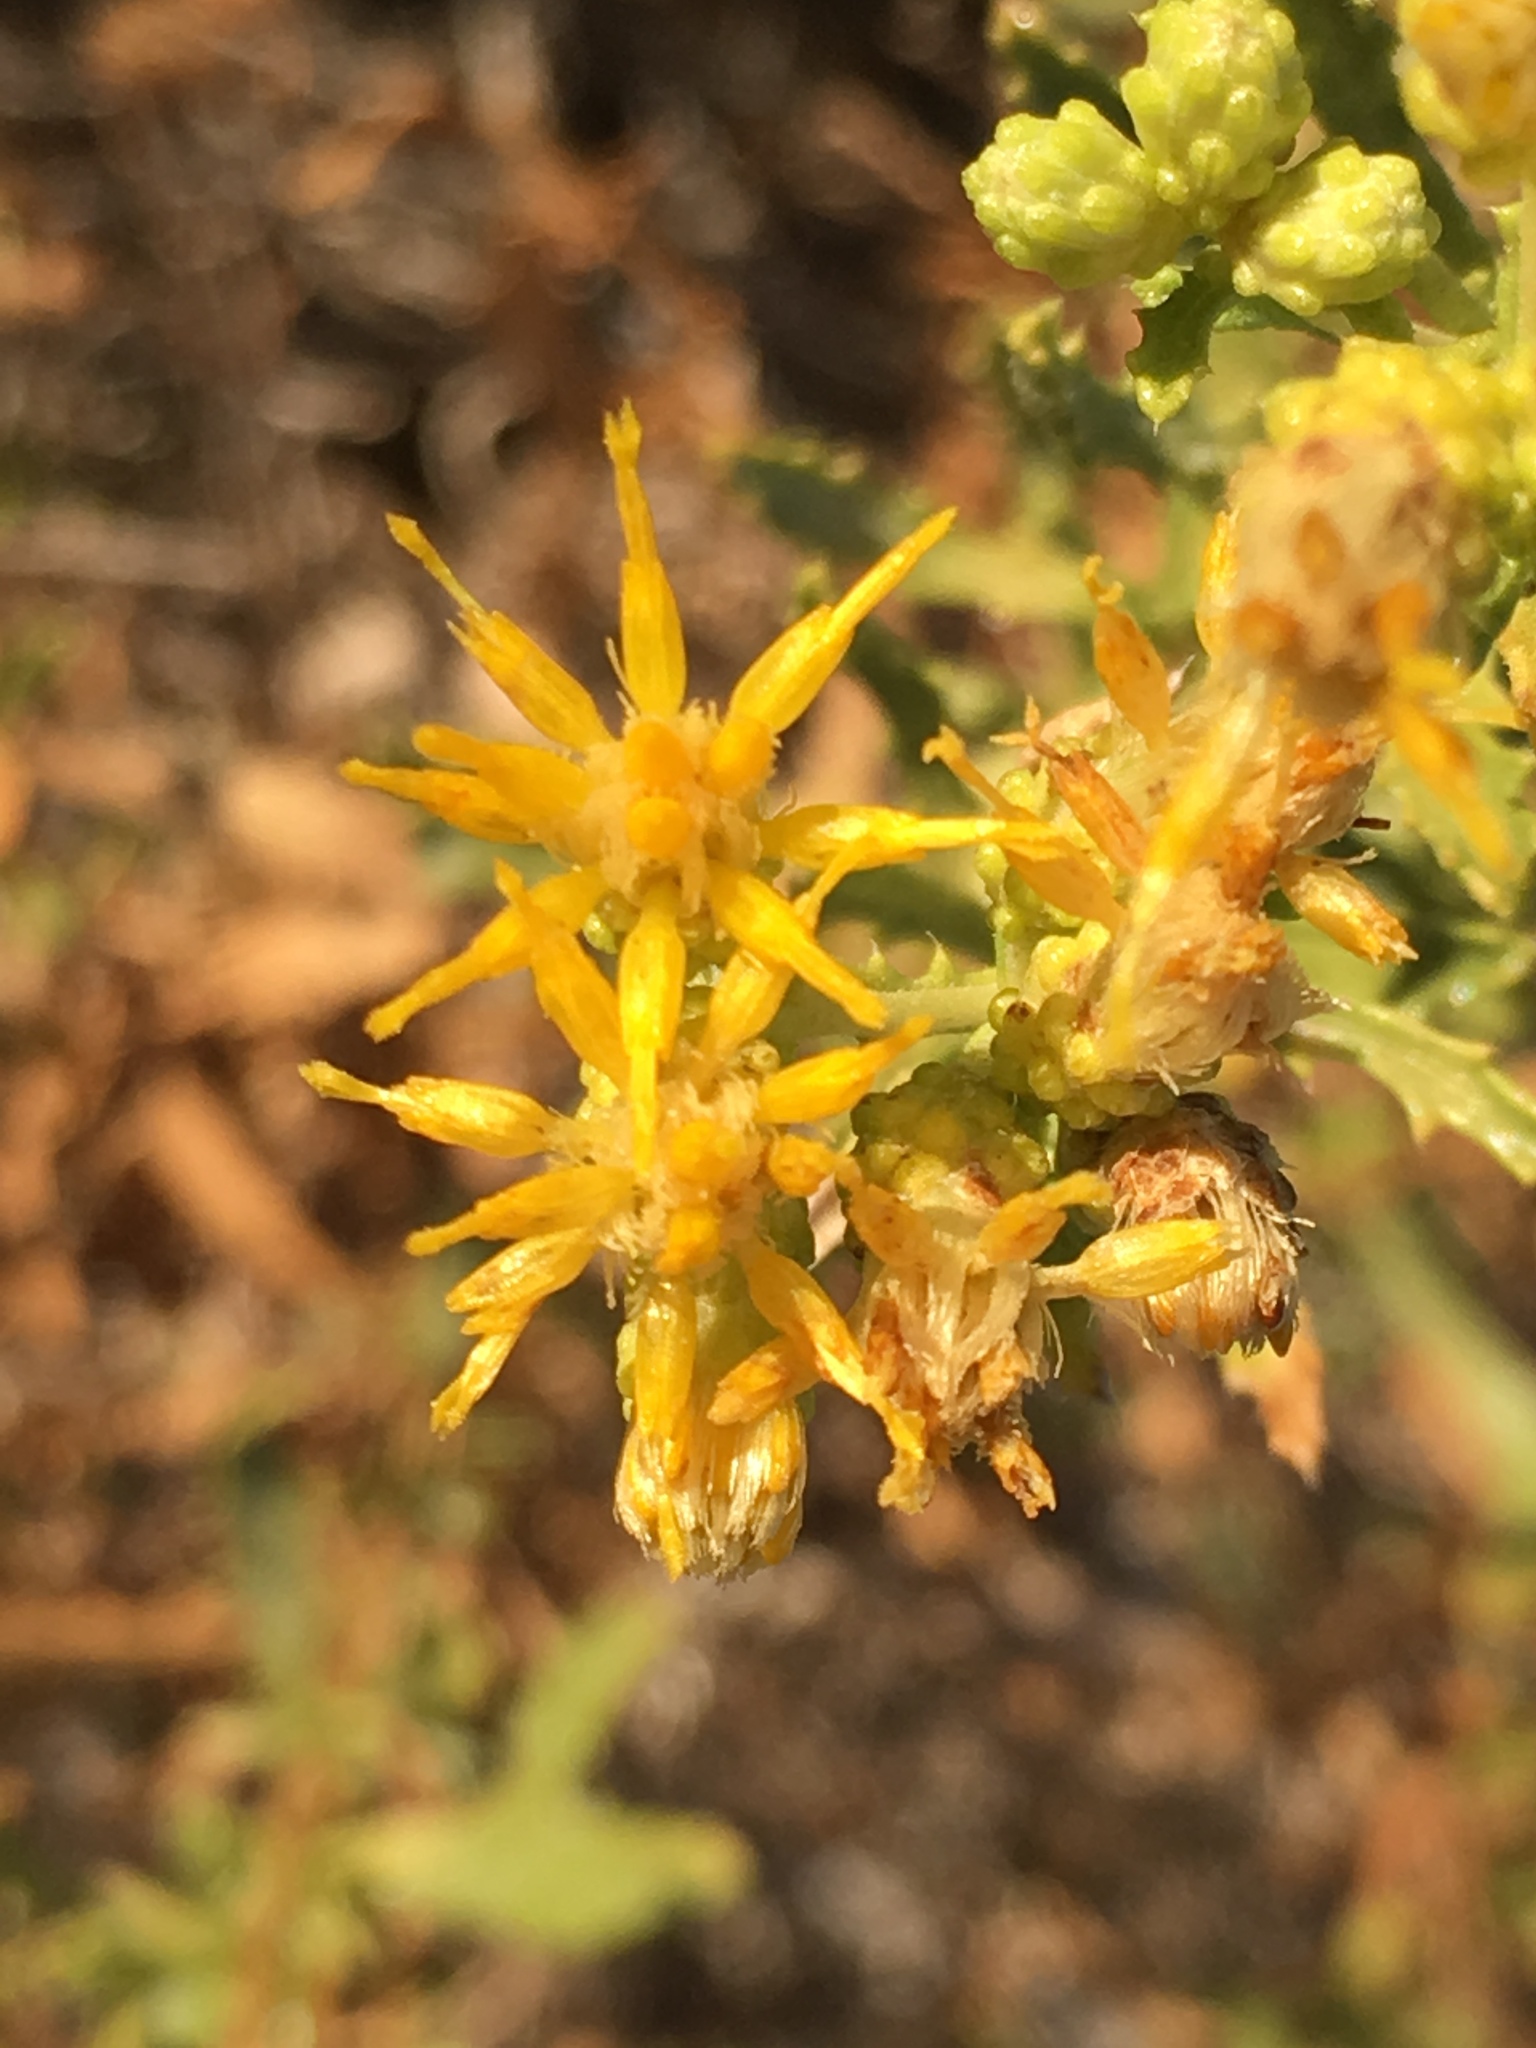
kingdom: Plantae
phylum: Tracheophyta
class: Magnoliopsida
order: Asterales
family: Asteraceae
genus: Isocoma
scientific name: Isocoma acradenia
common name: Alkali jimmyweed
